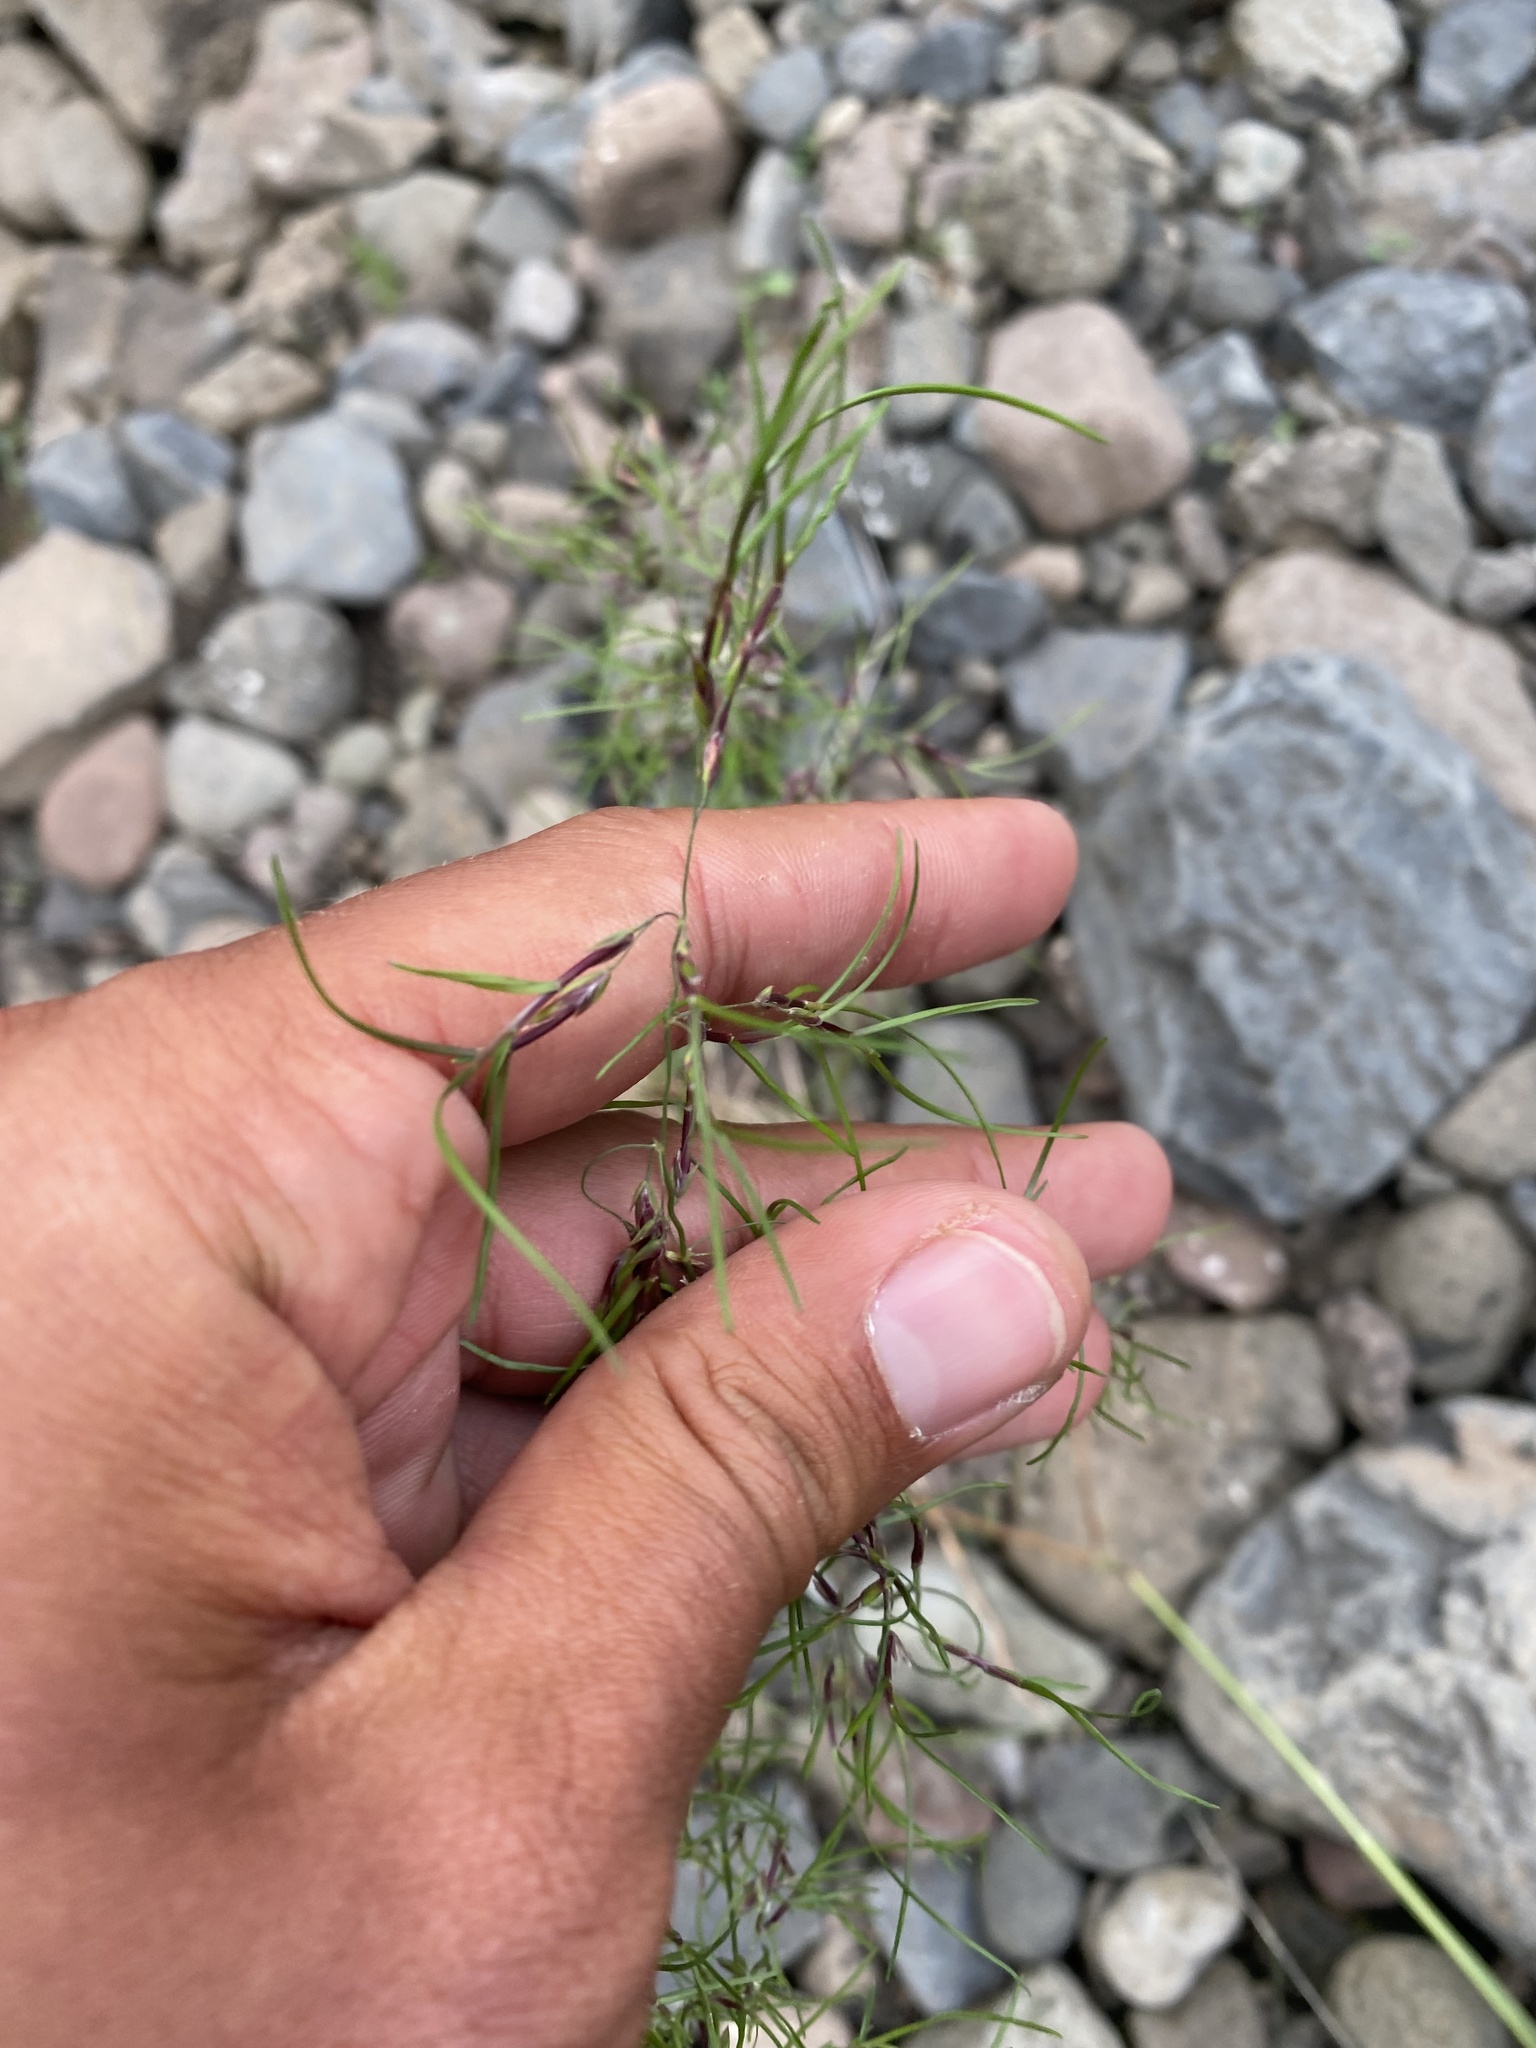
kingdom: Plantae
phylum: Tracheophyta
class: Liliopsida
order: Poales
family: Poaceae
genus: Poa
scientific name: Poa alpigena
